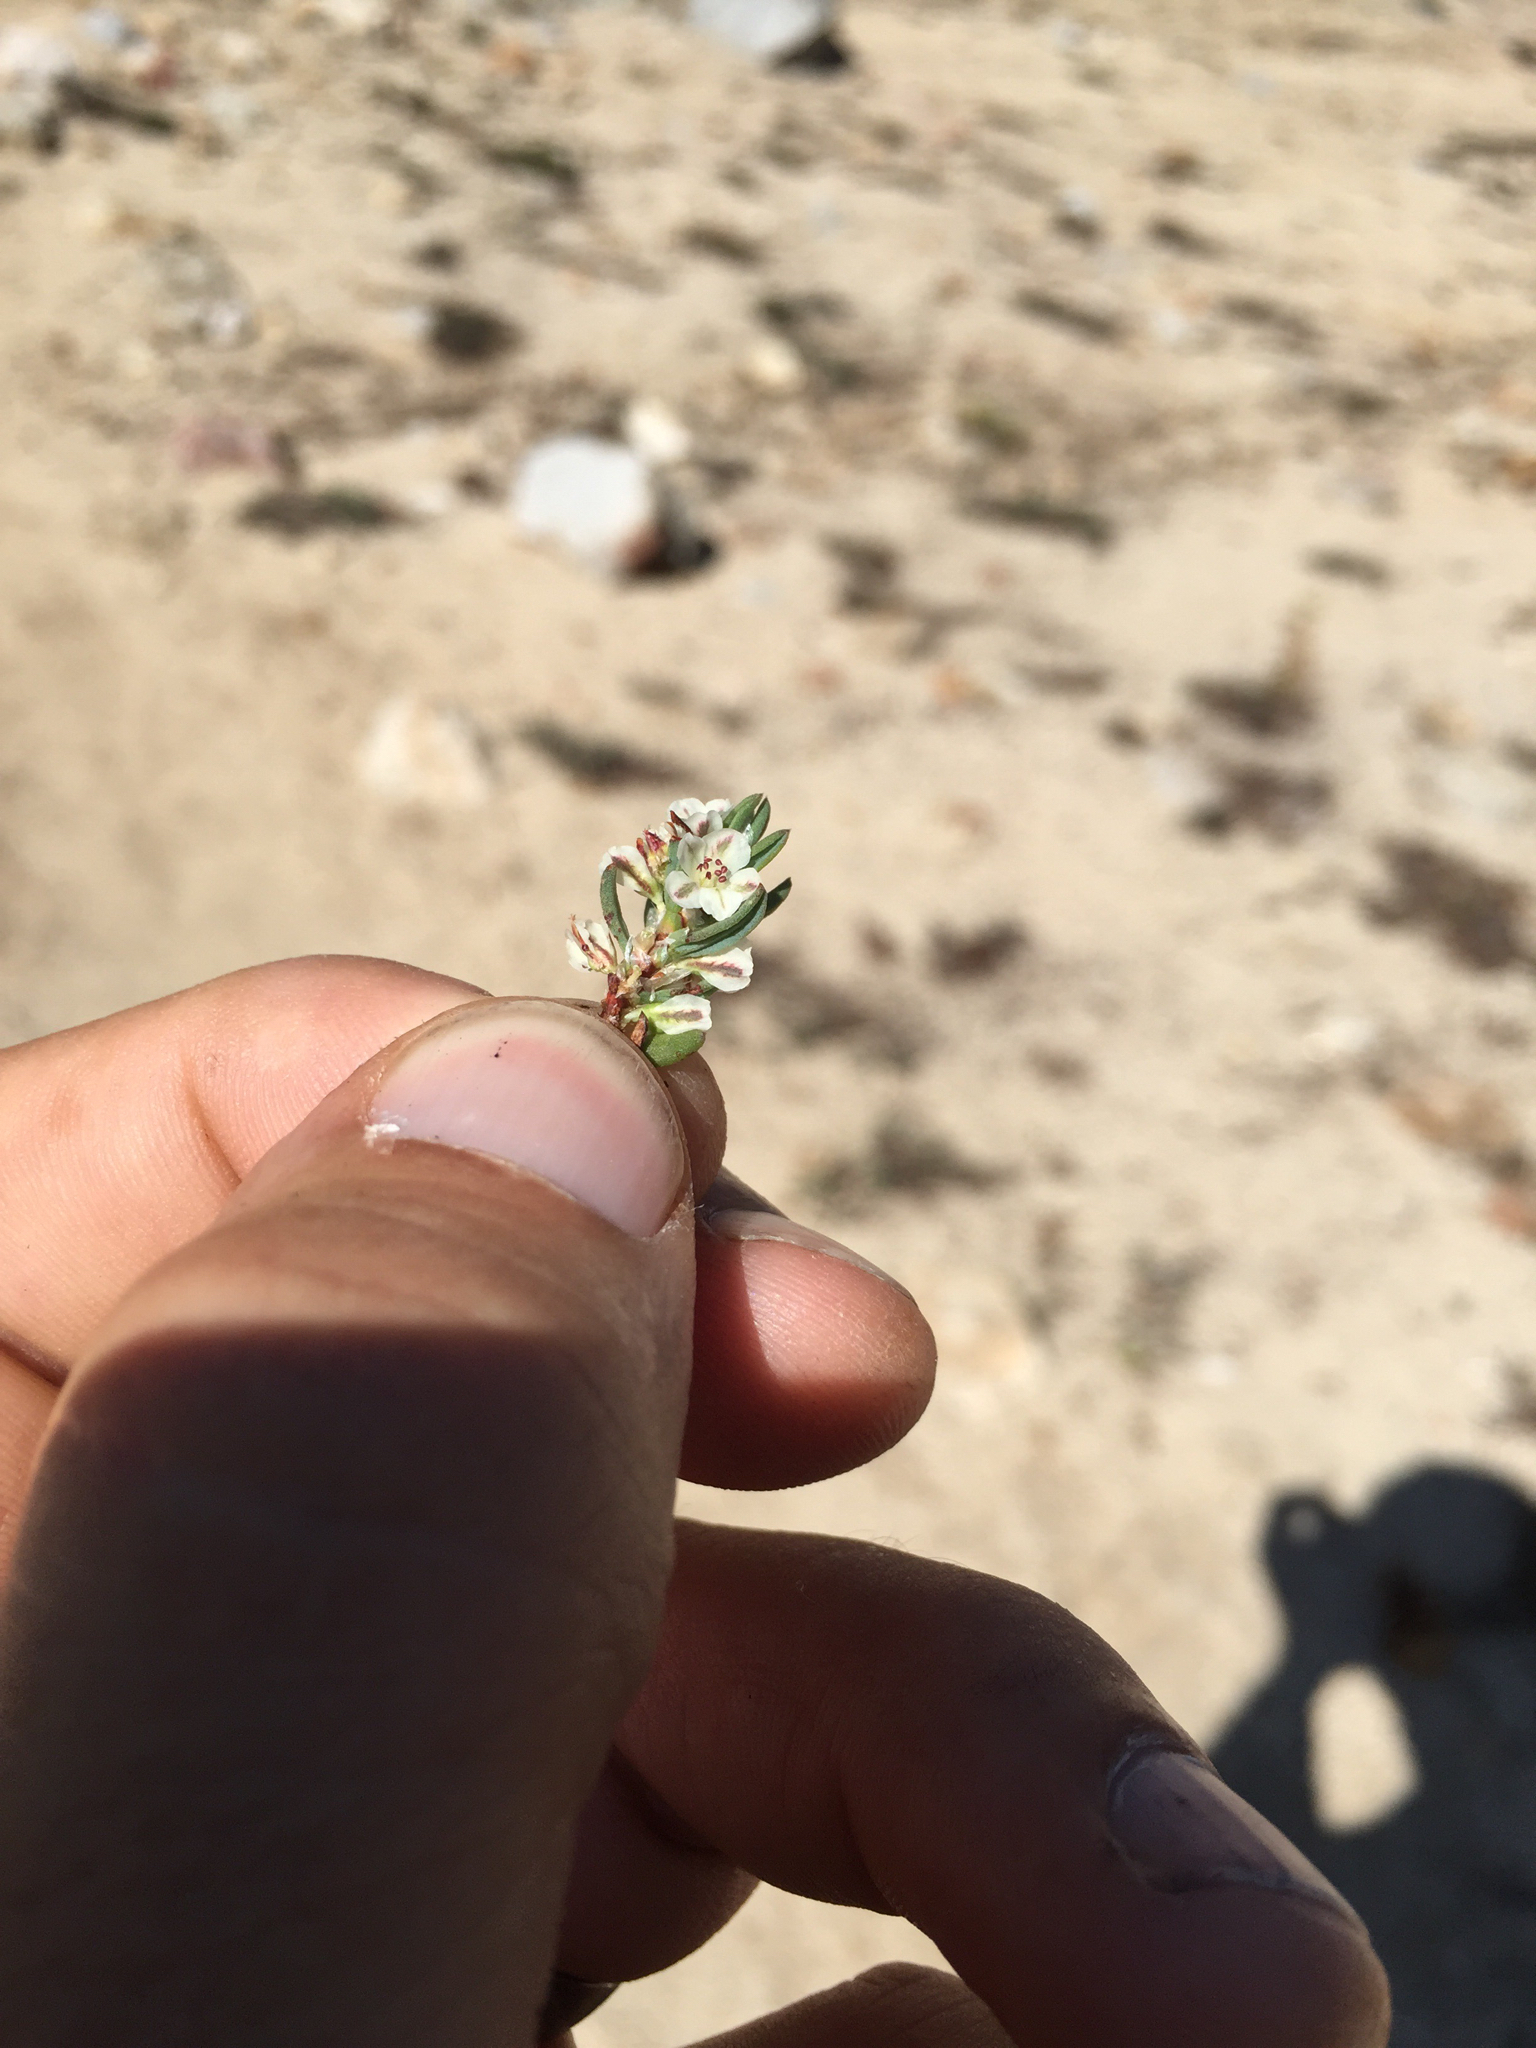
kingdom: Plantae
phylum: Tracheophyta
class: Magnoliopsida
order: Caryophyllales
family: Polygonaceae
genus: Polygonum
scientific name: Polygonum shastense
